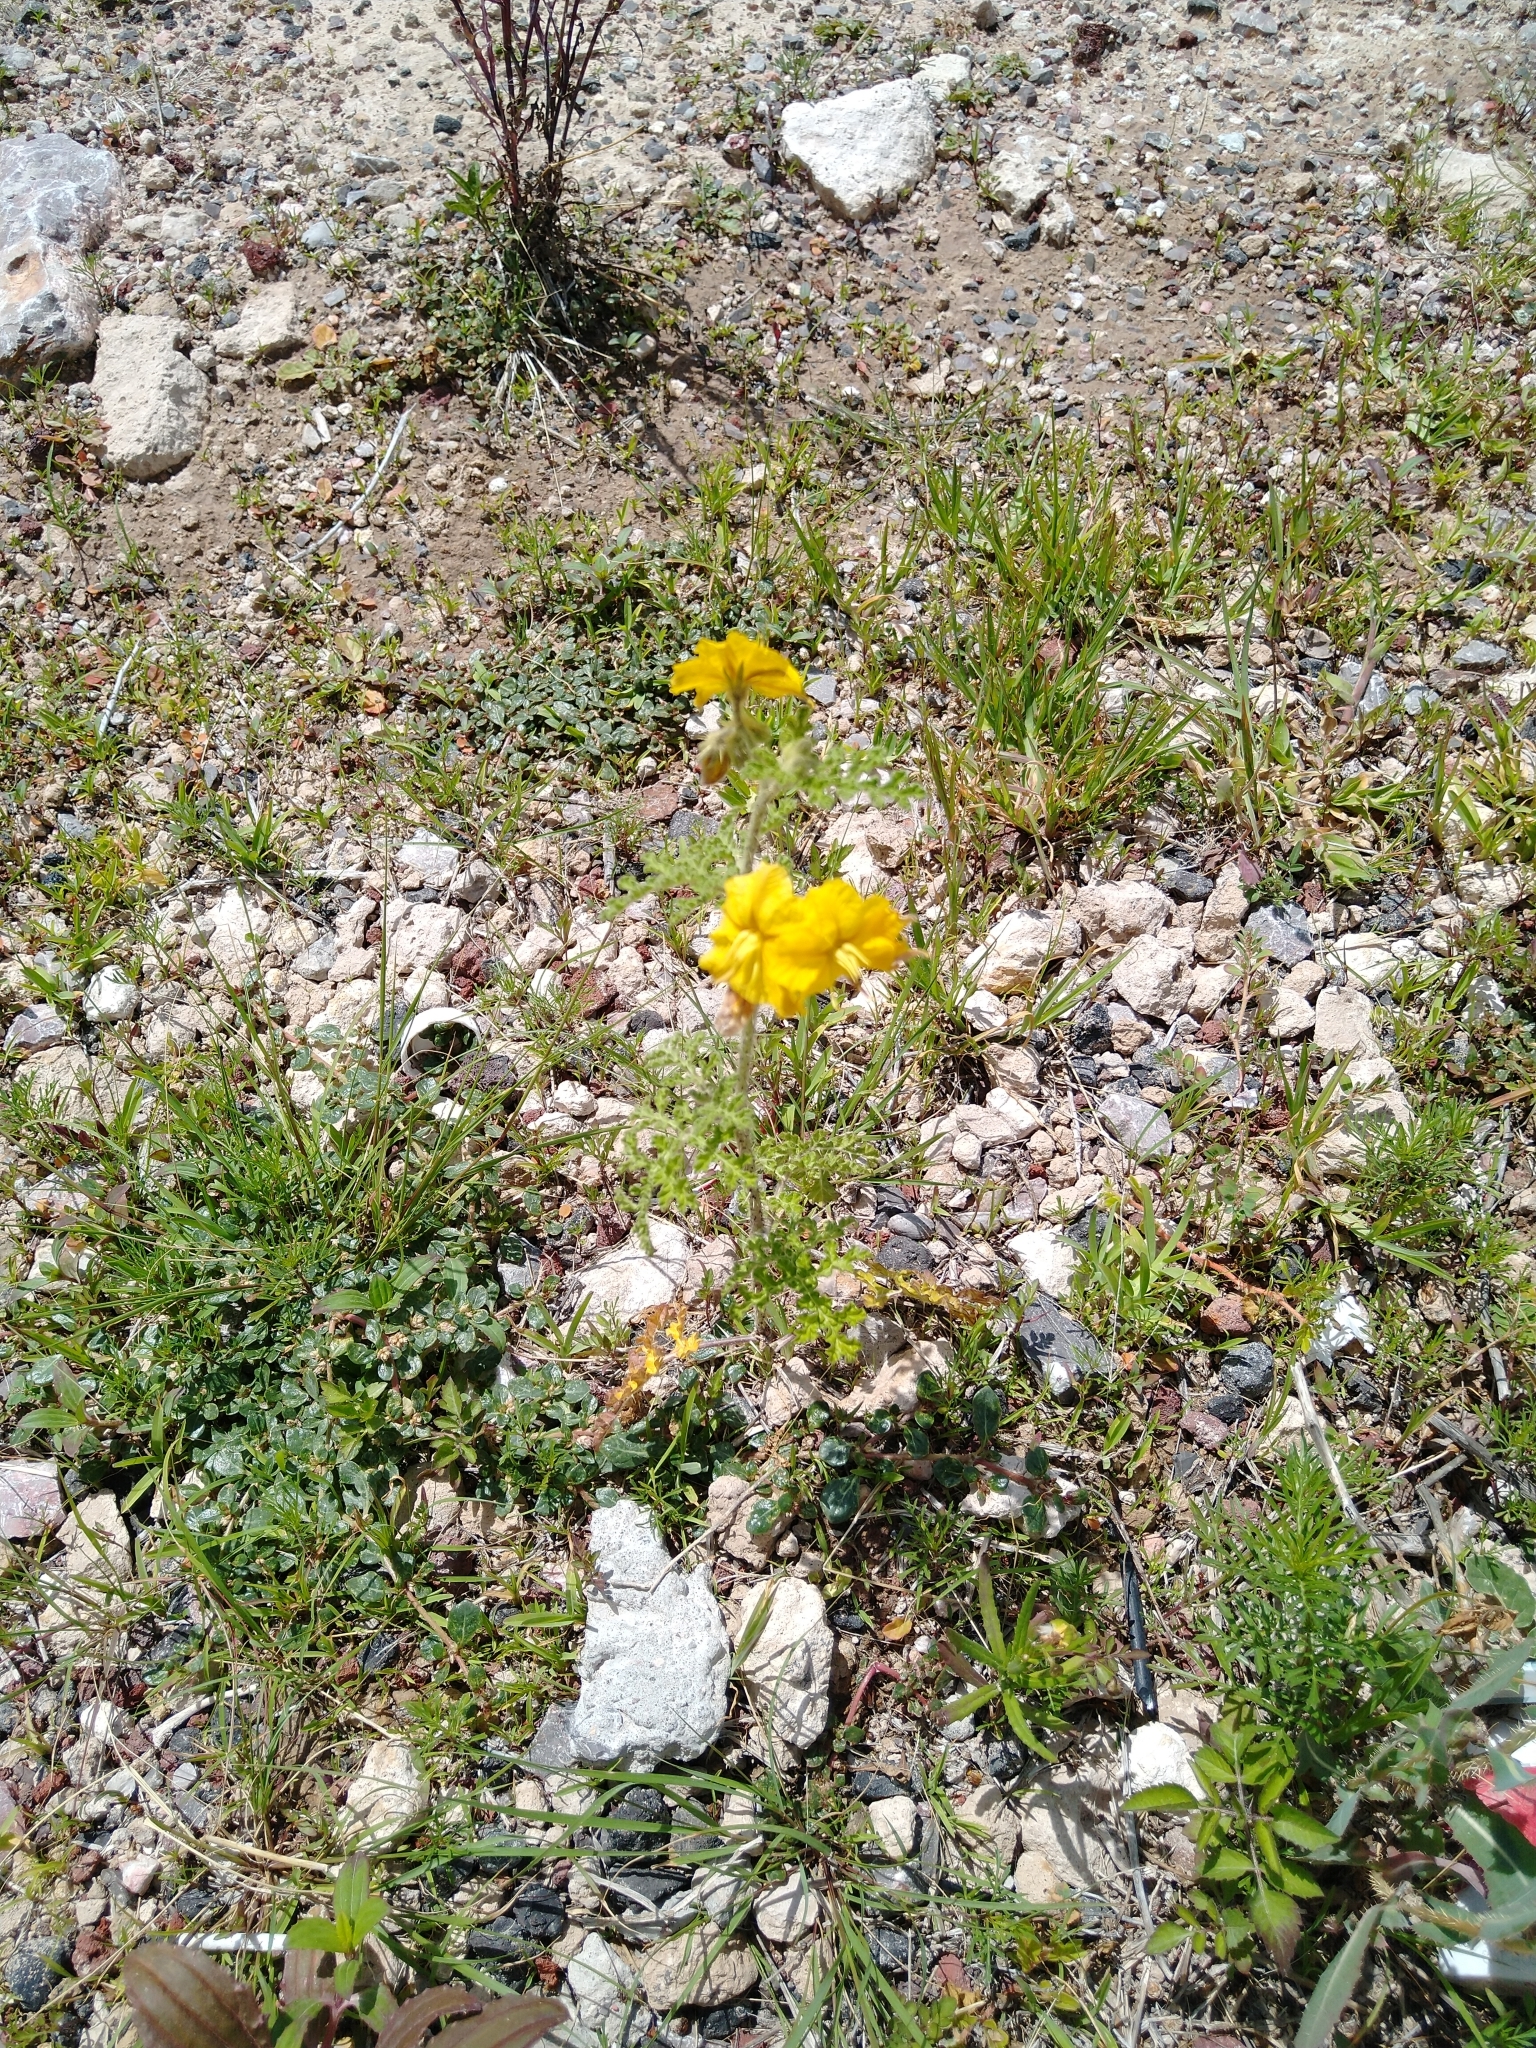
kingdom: Plantae
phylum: Tracheophyta
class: Magnoliopsida
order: Solanales
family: Solanaceae
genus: Solanum
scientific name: Solanum angustifolium
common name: Buffalobur nightshade
